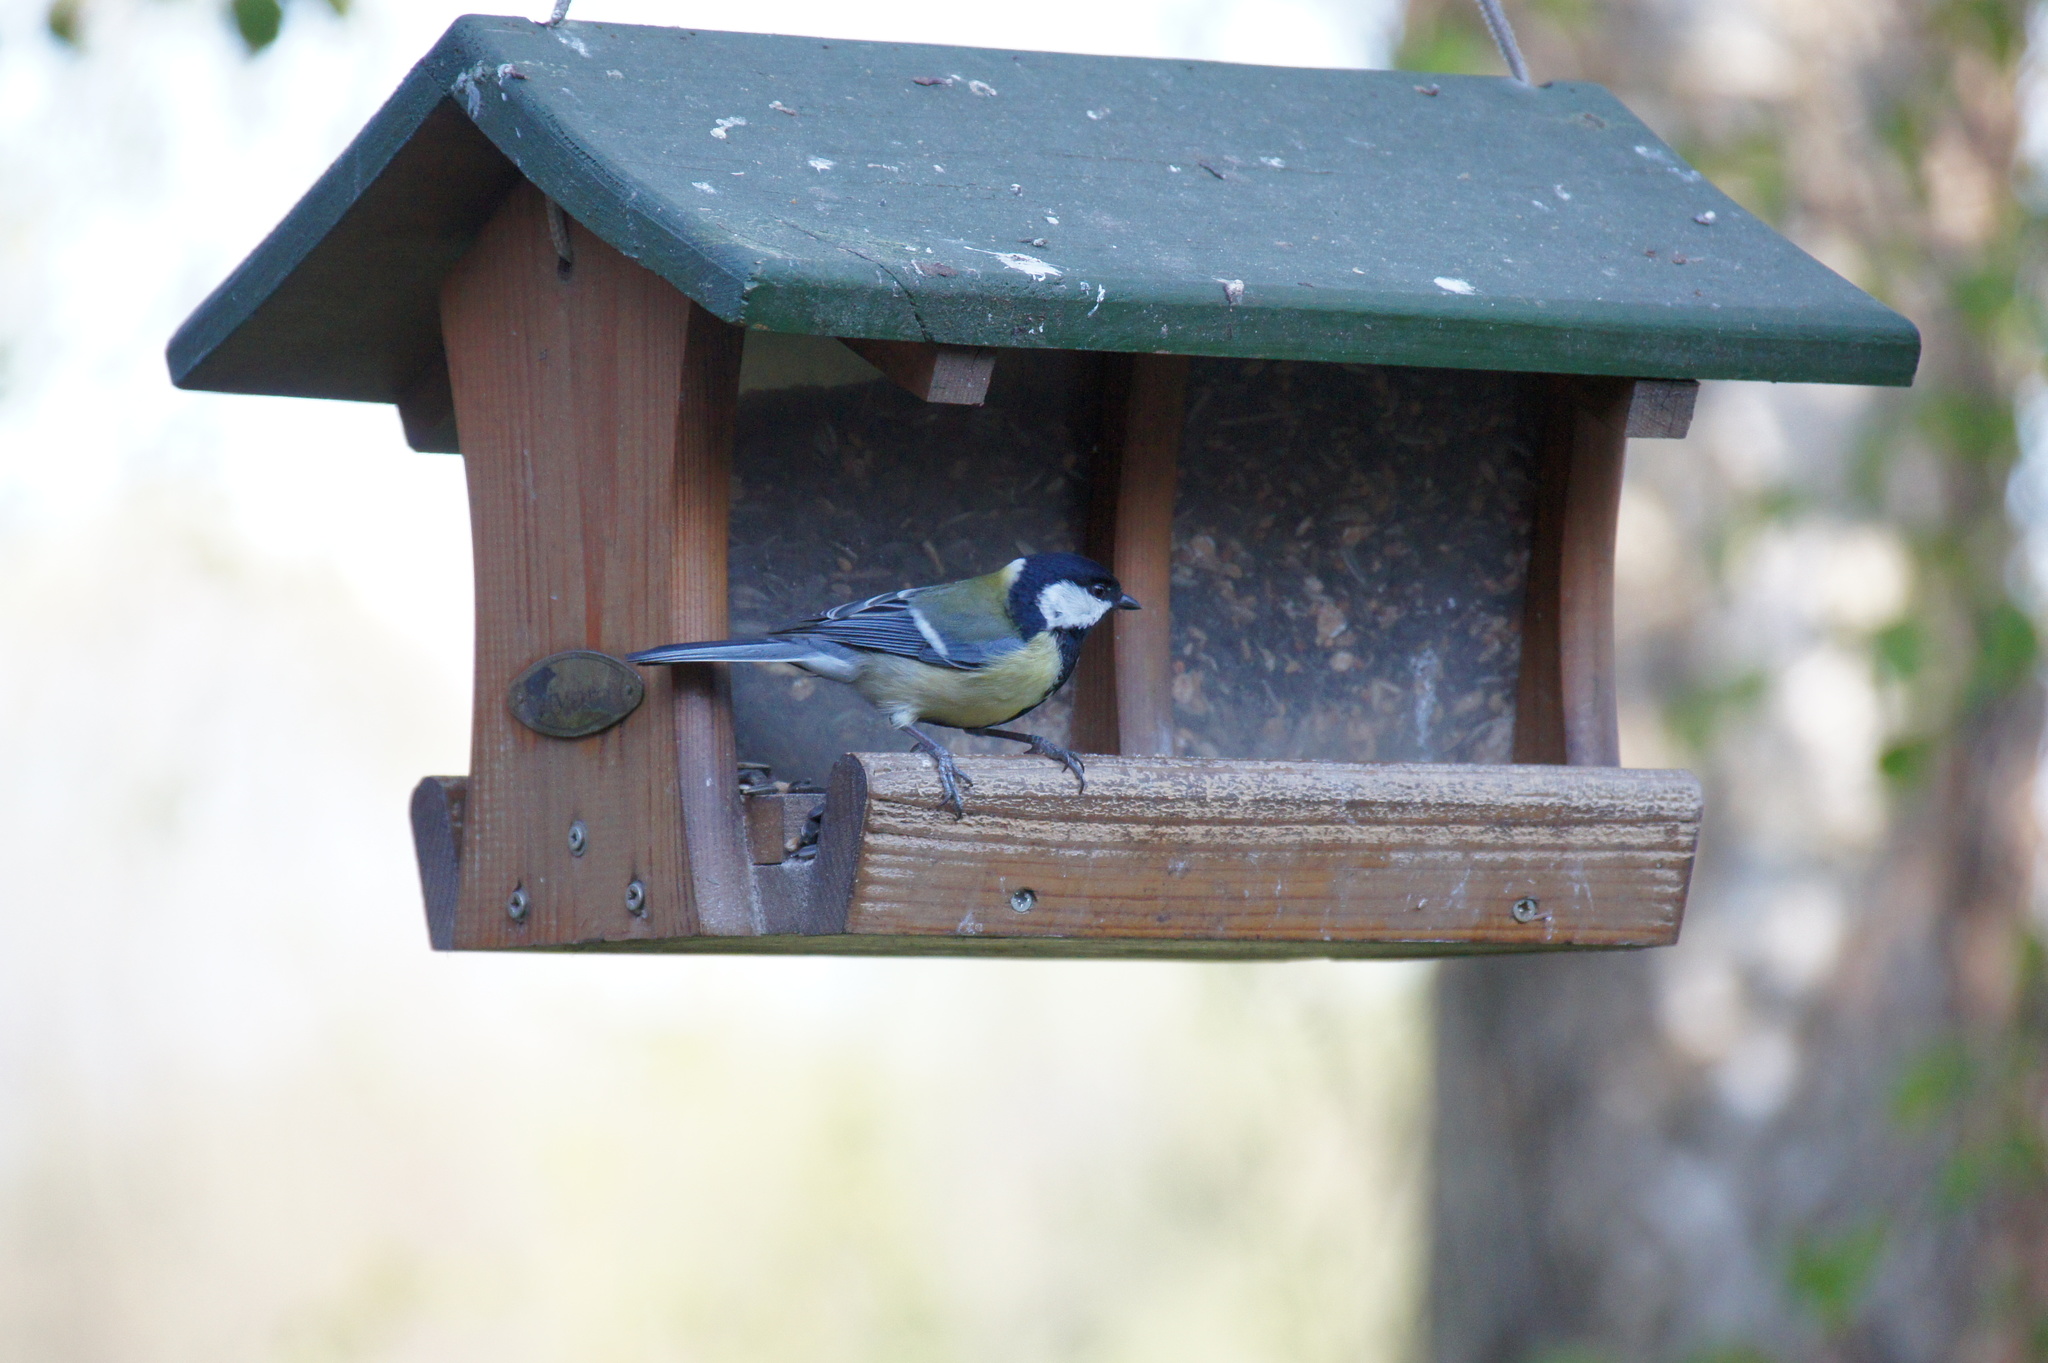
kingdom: Animalia
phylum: Chordata
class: Aves
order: Passeriformes
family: Paridae
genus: Parus
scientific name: Parus major
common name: Great tit
